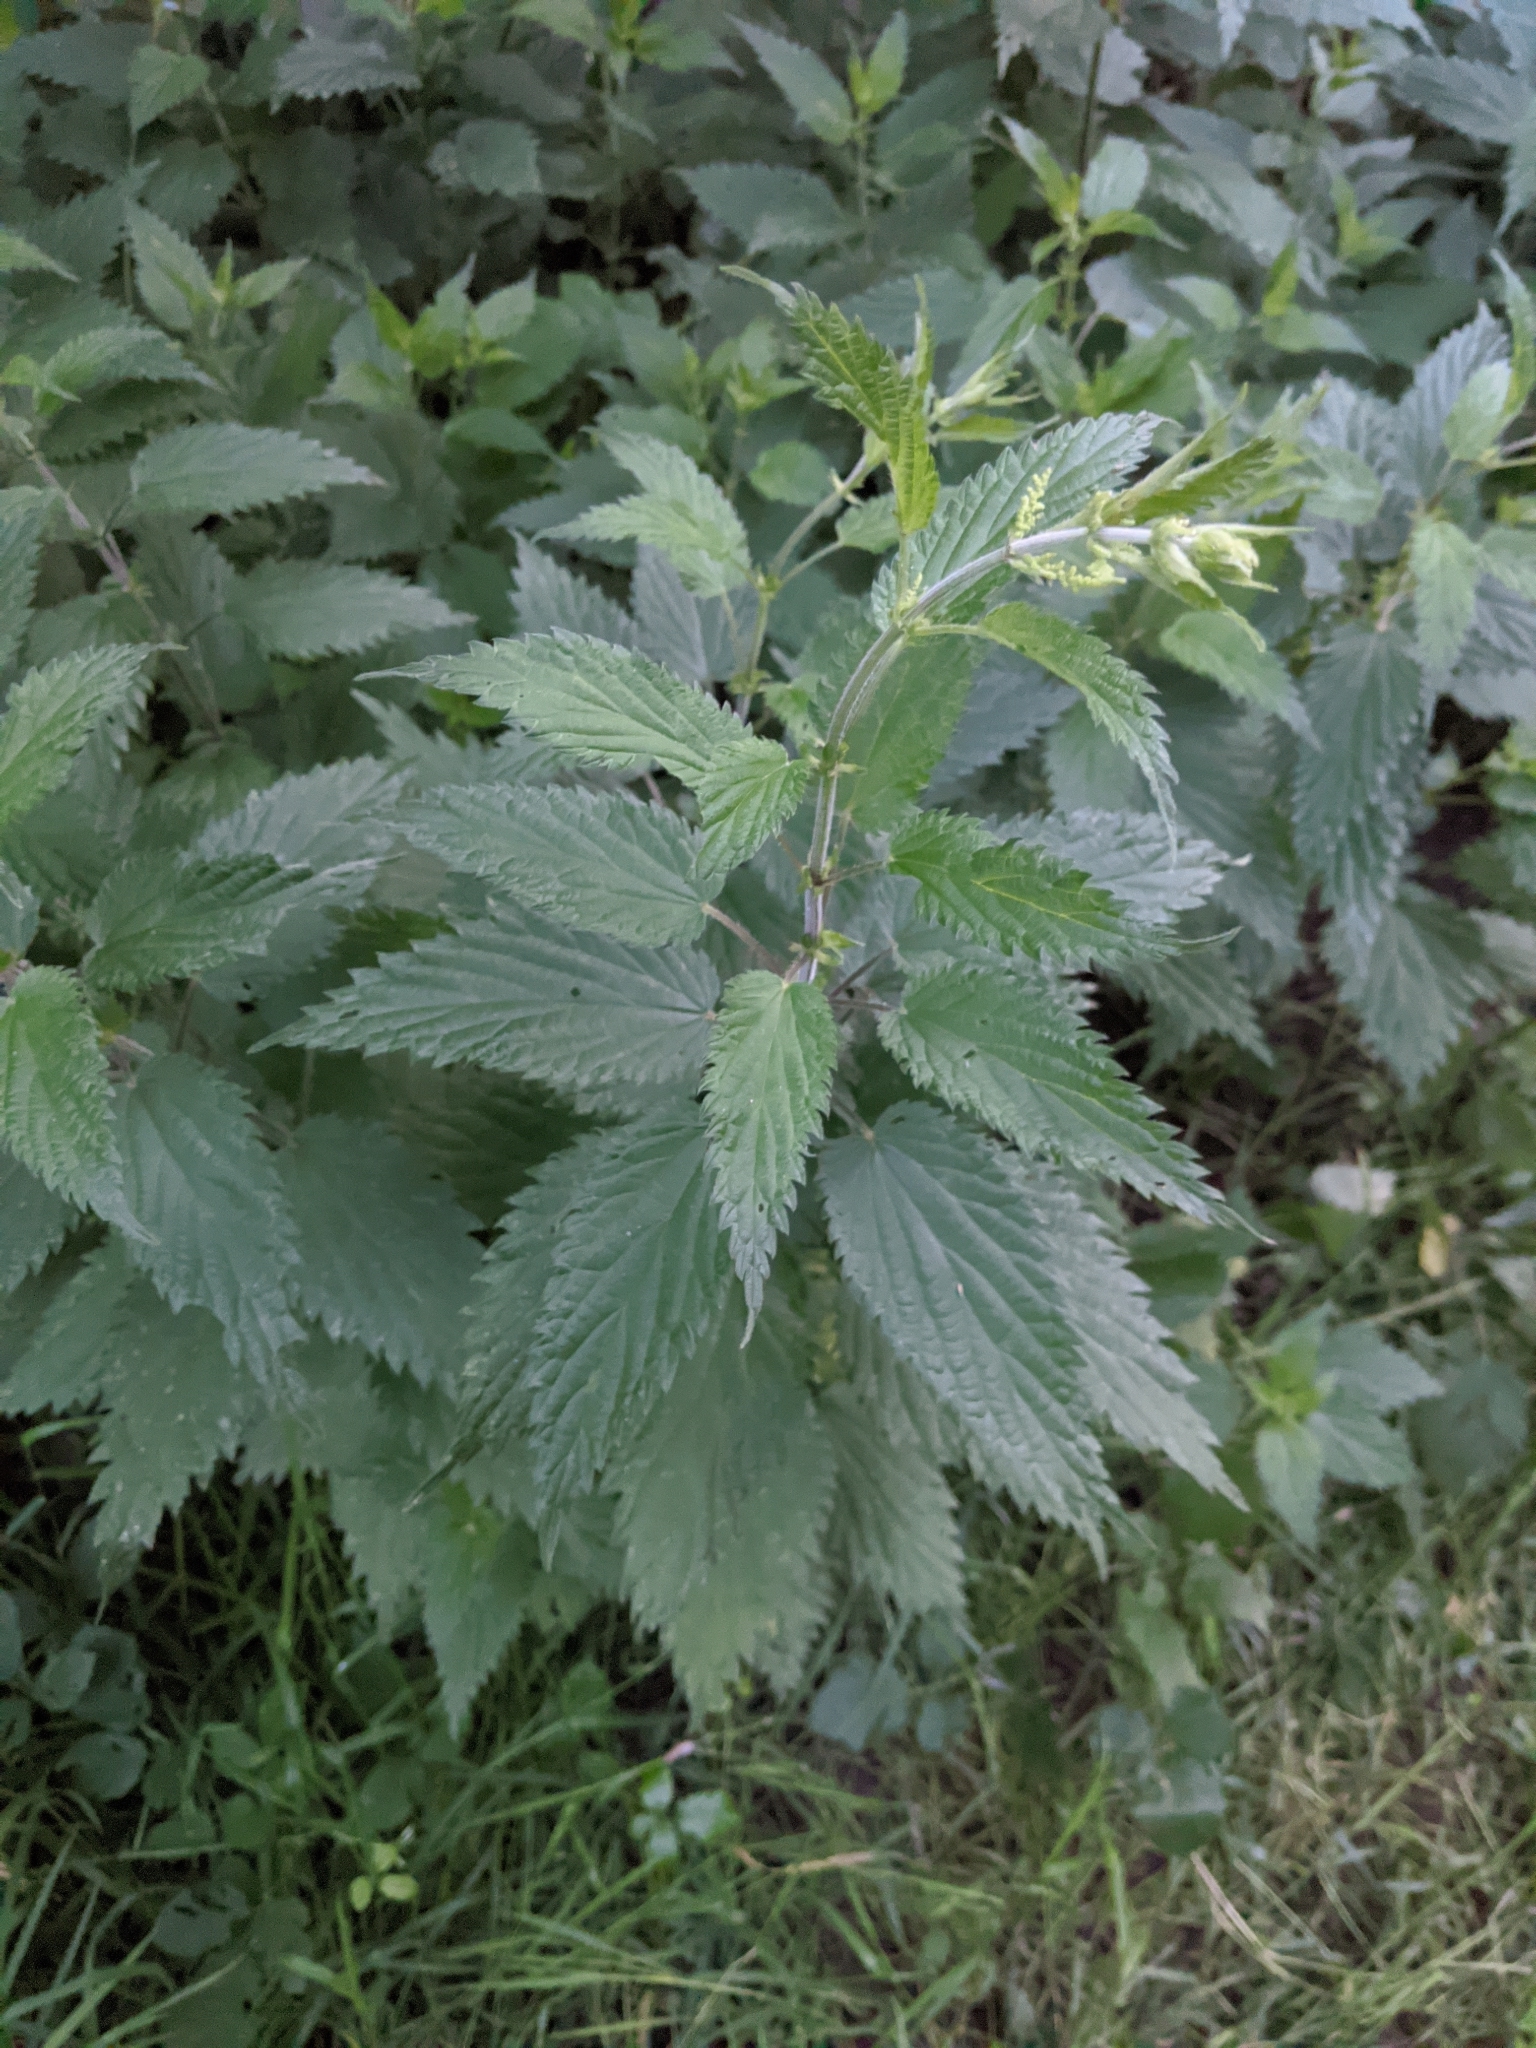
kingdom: Plantae
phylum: Tracheophyta
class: Magnoliopsida
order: Rosales
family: Urticaceae
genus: Urtica
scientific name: Urtica dioica
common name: Common nettle
